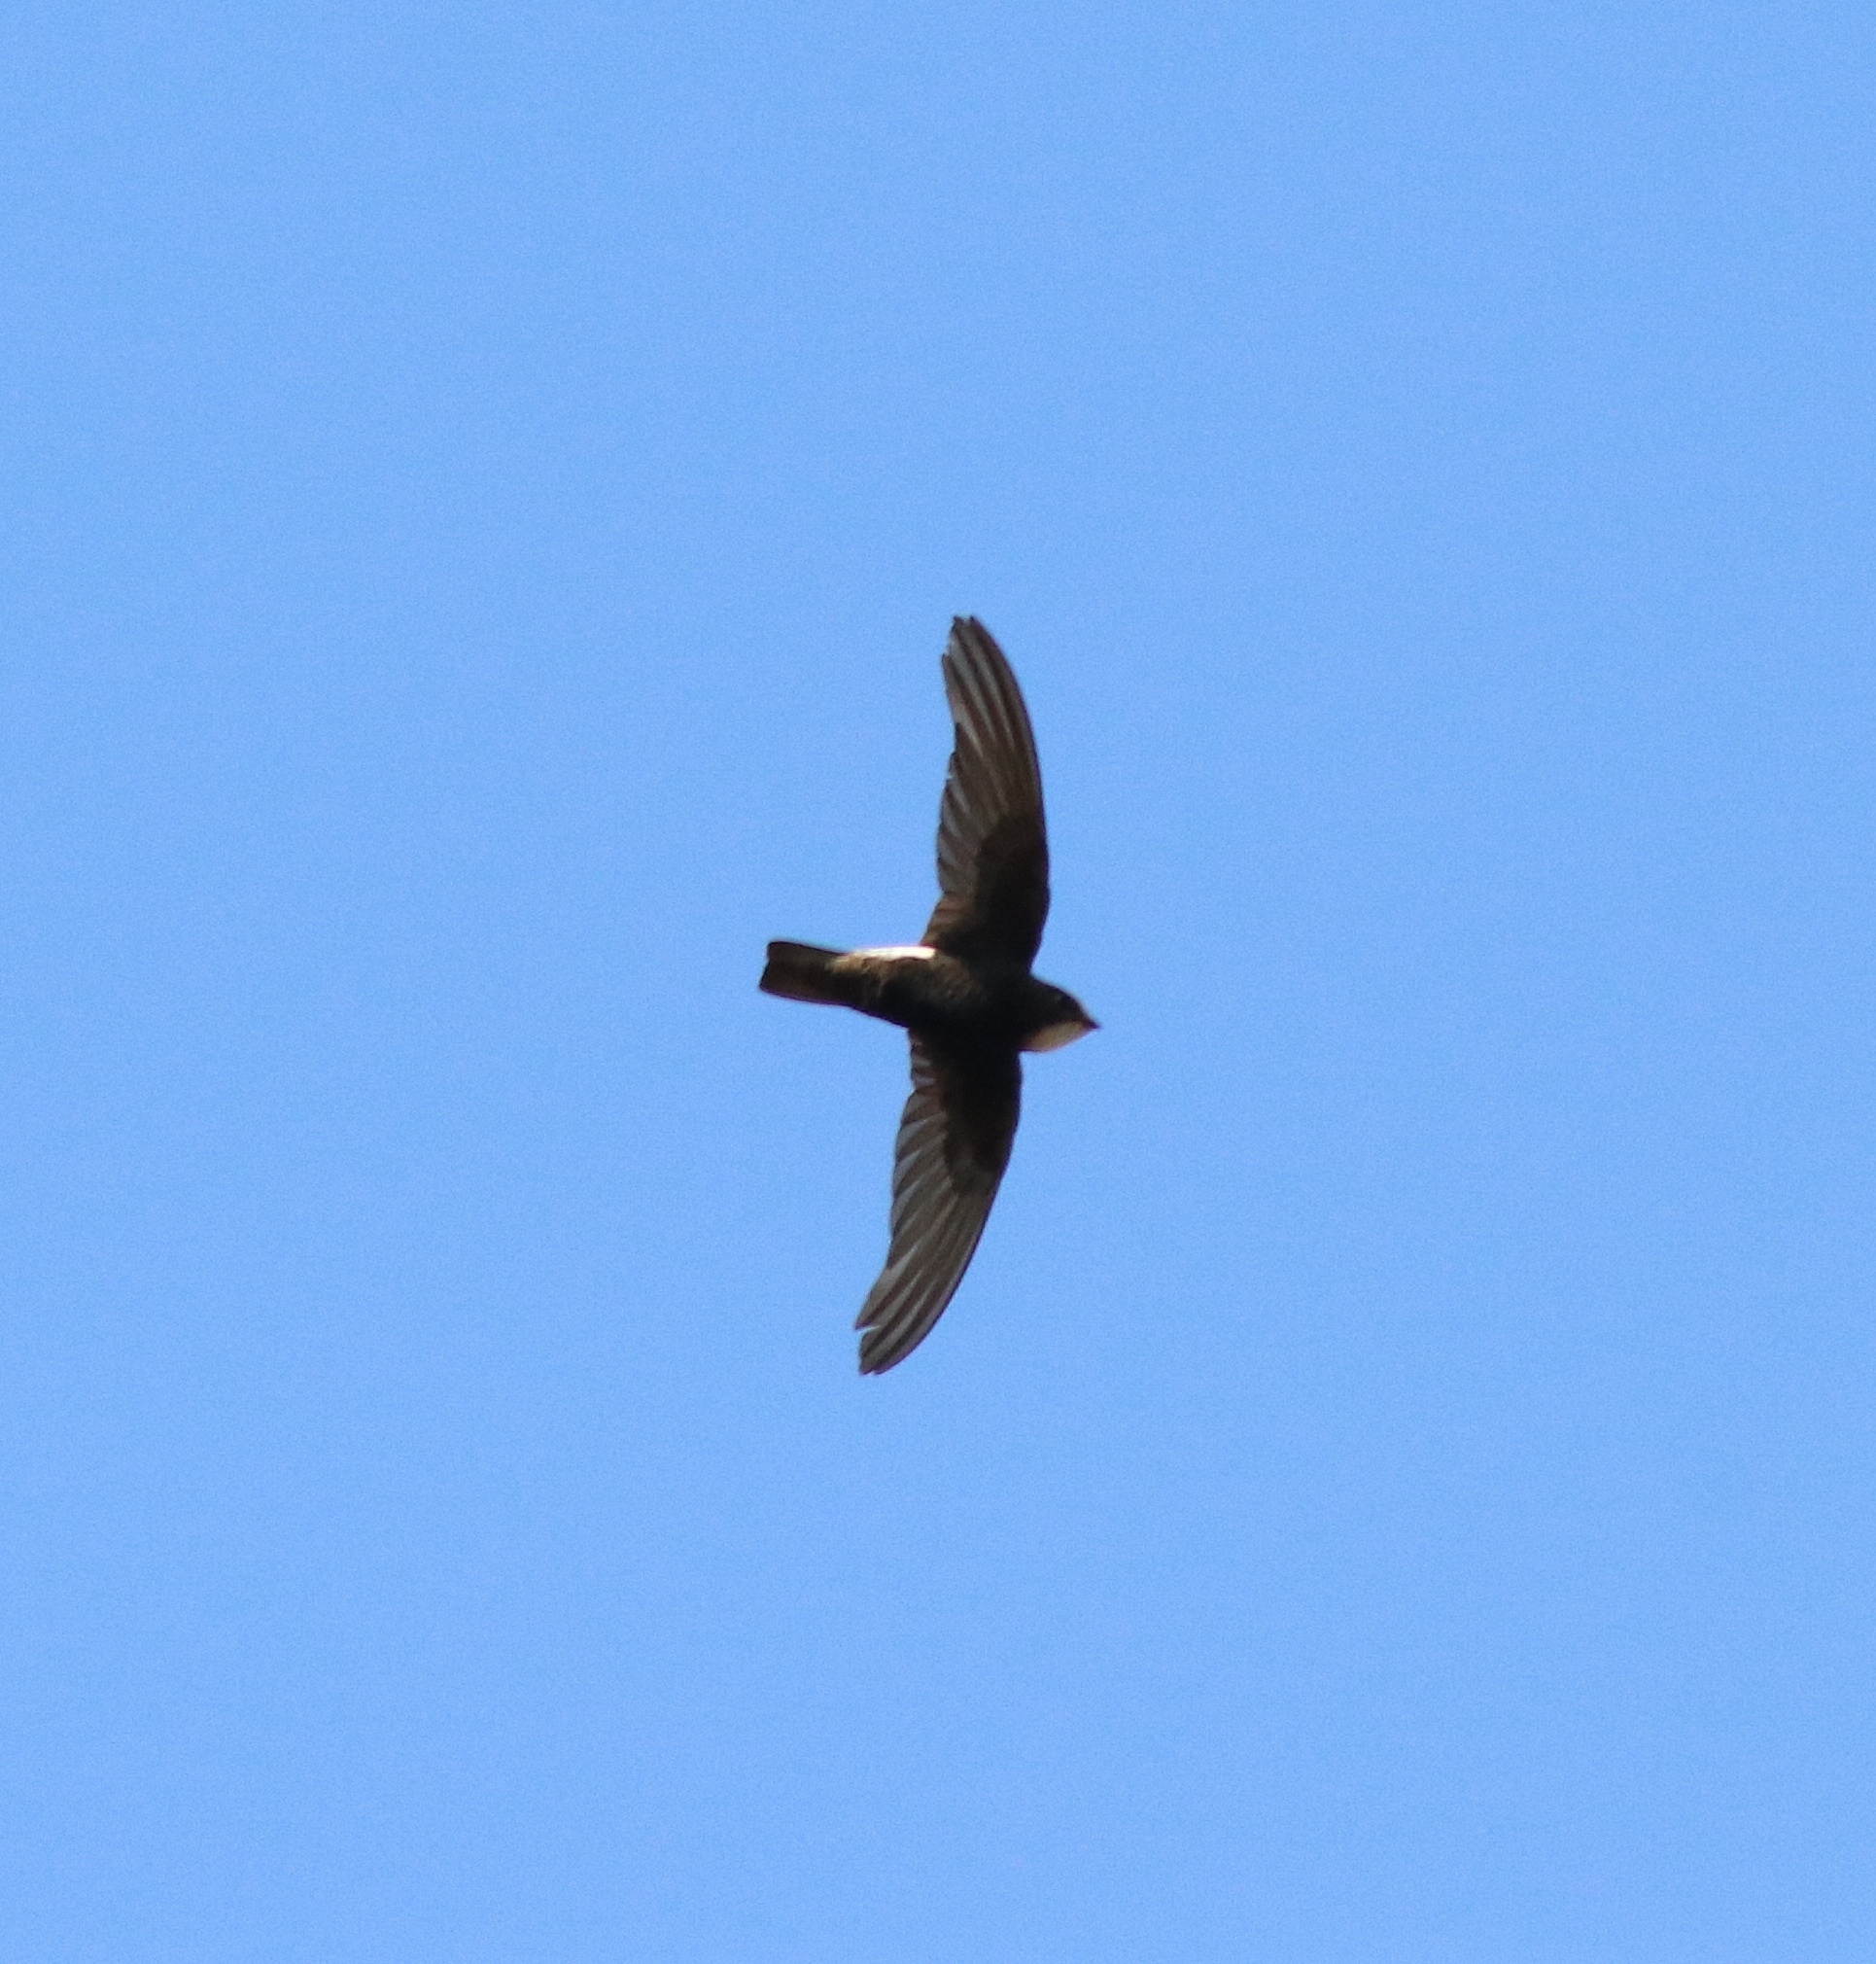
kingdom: Animalia
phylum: Chordata
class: Aves
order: Apodiformes
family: Apodidae
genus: Apus
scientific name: Apus affinis
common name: Little swift
